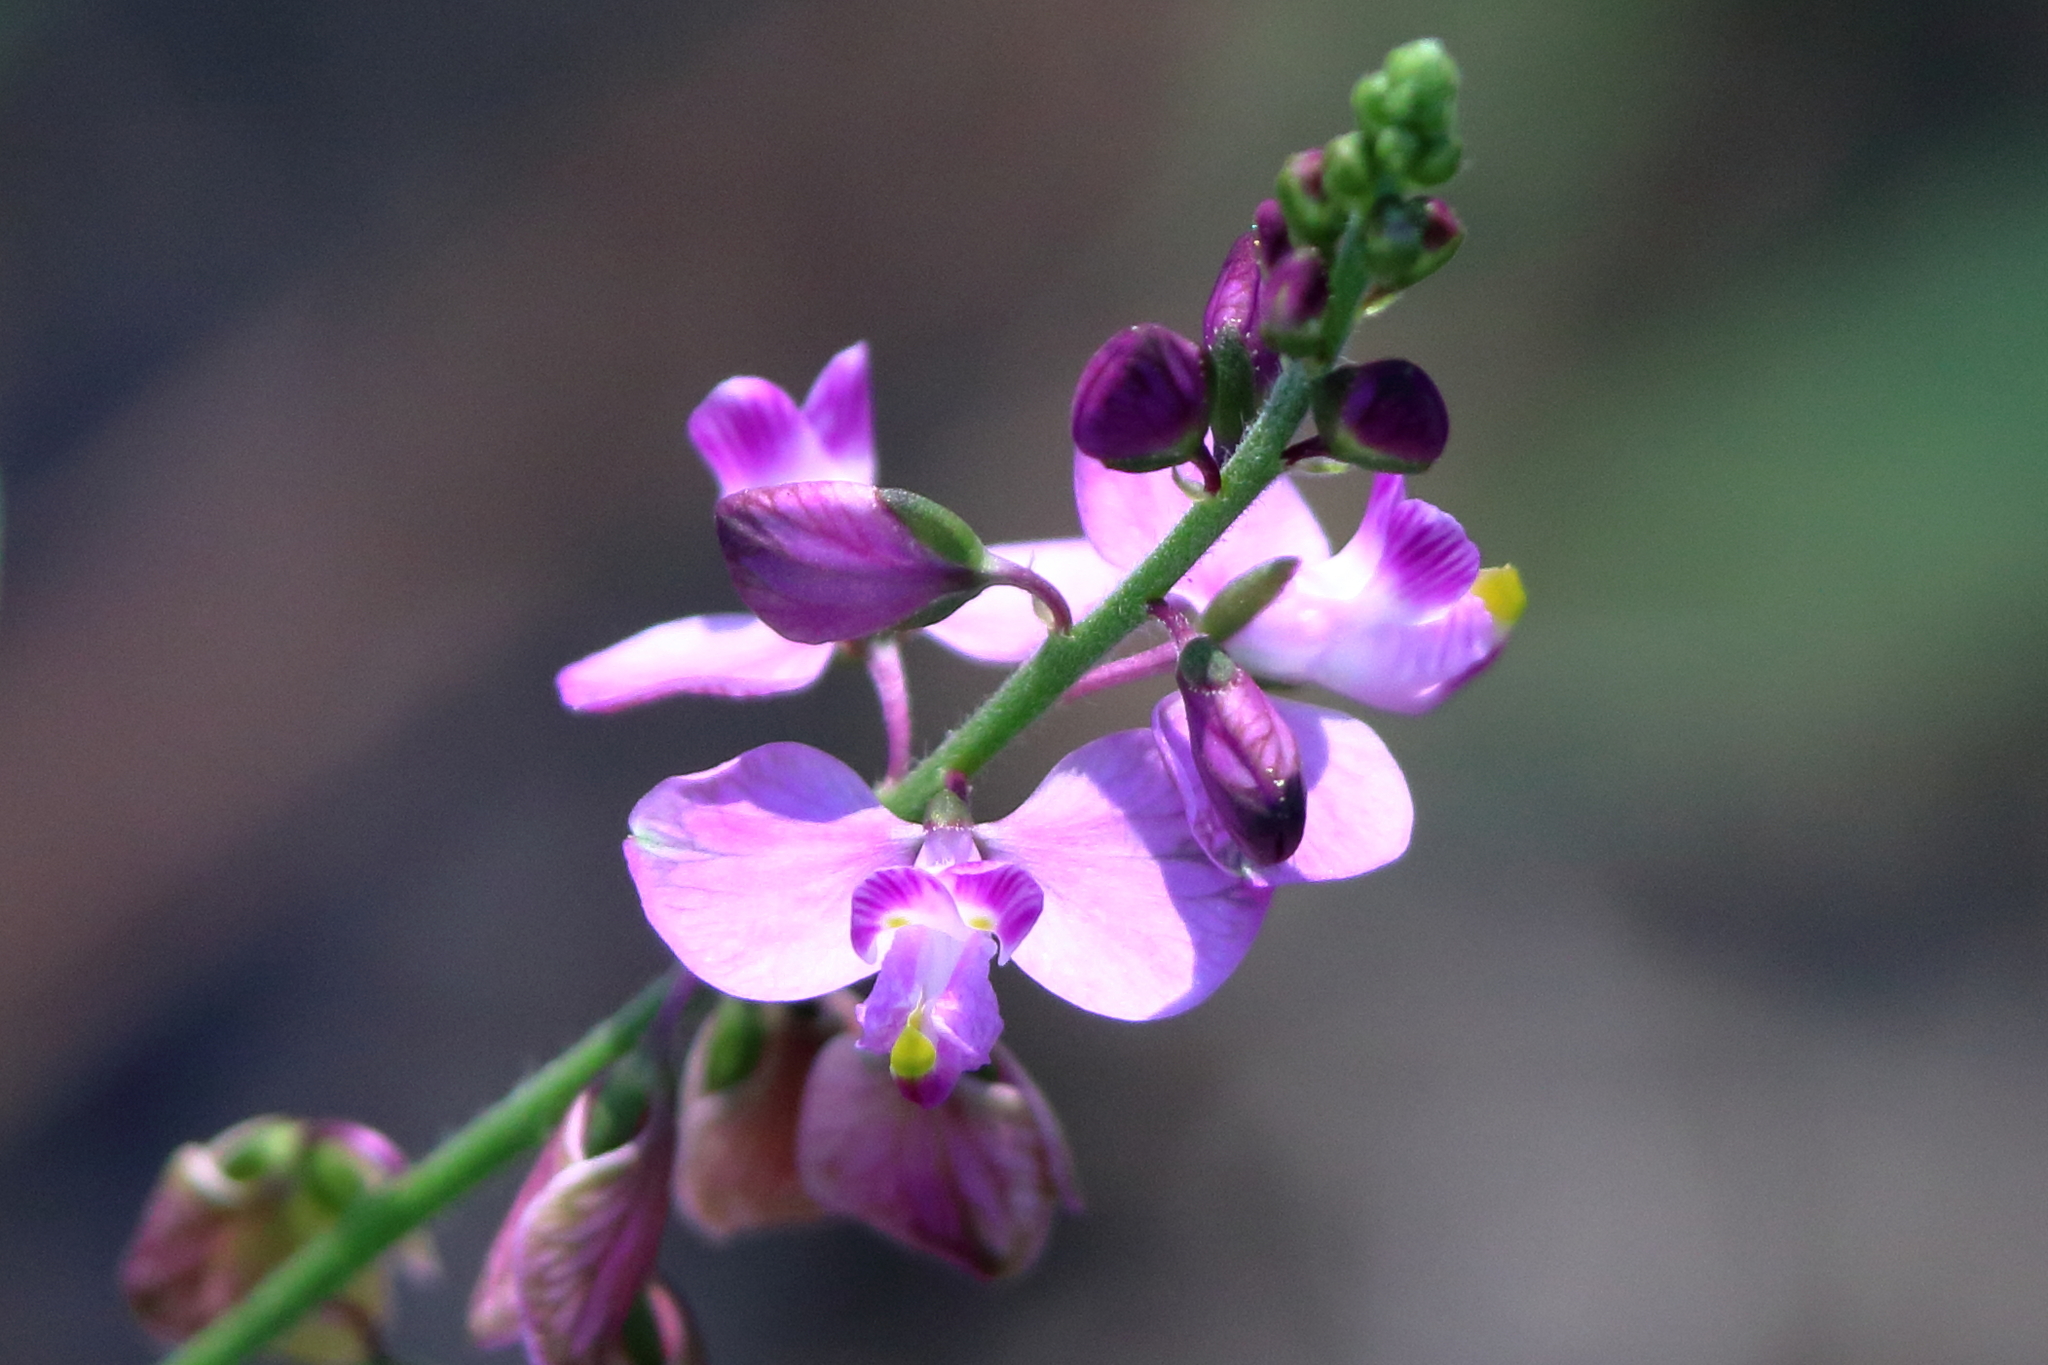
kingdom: Plantae
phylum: Tracheophyta
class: Magnoliopsida
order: Fabales
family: Polygalaceae
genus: Asemeia
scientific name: Asemeia grandiflora
